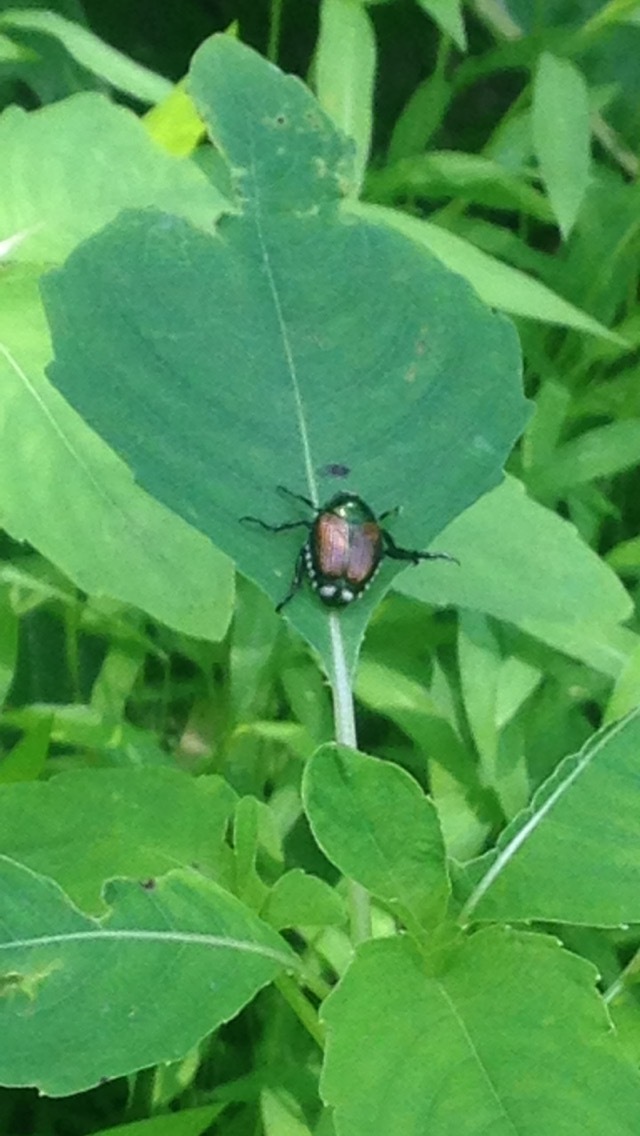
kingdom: Animalia
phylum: Arthropoda
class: Insecta
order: Coleoptera
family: Scarabaeidae
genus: Popillia
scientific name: Popillia japonica
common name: Japanese beetle
